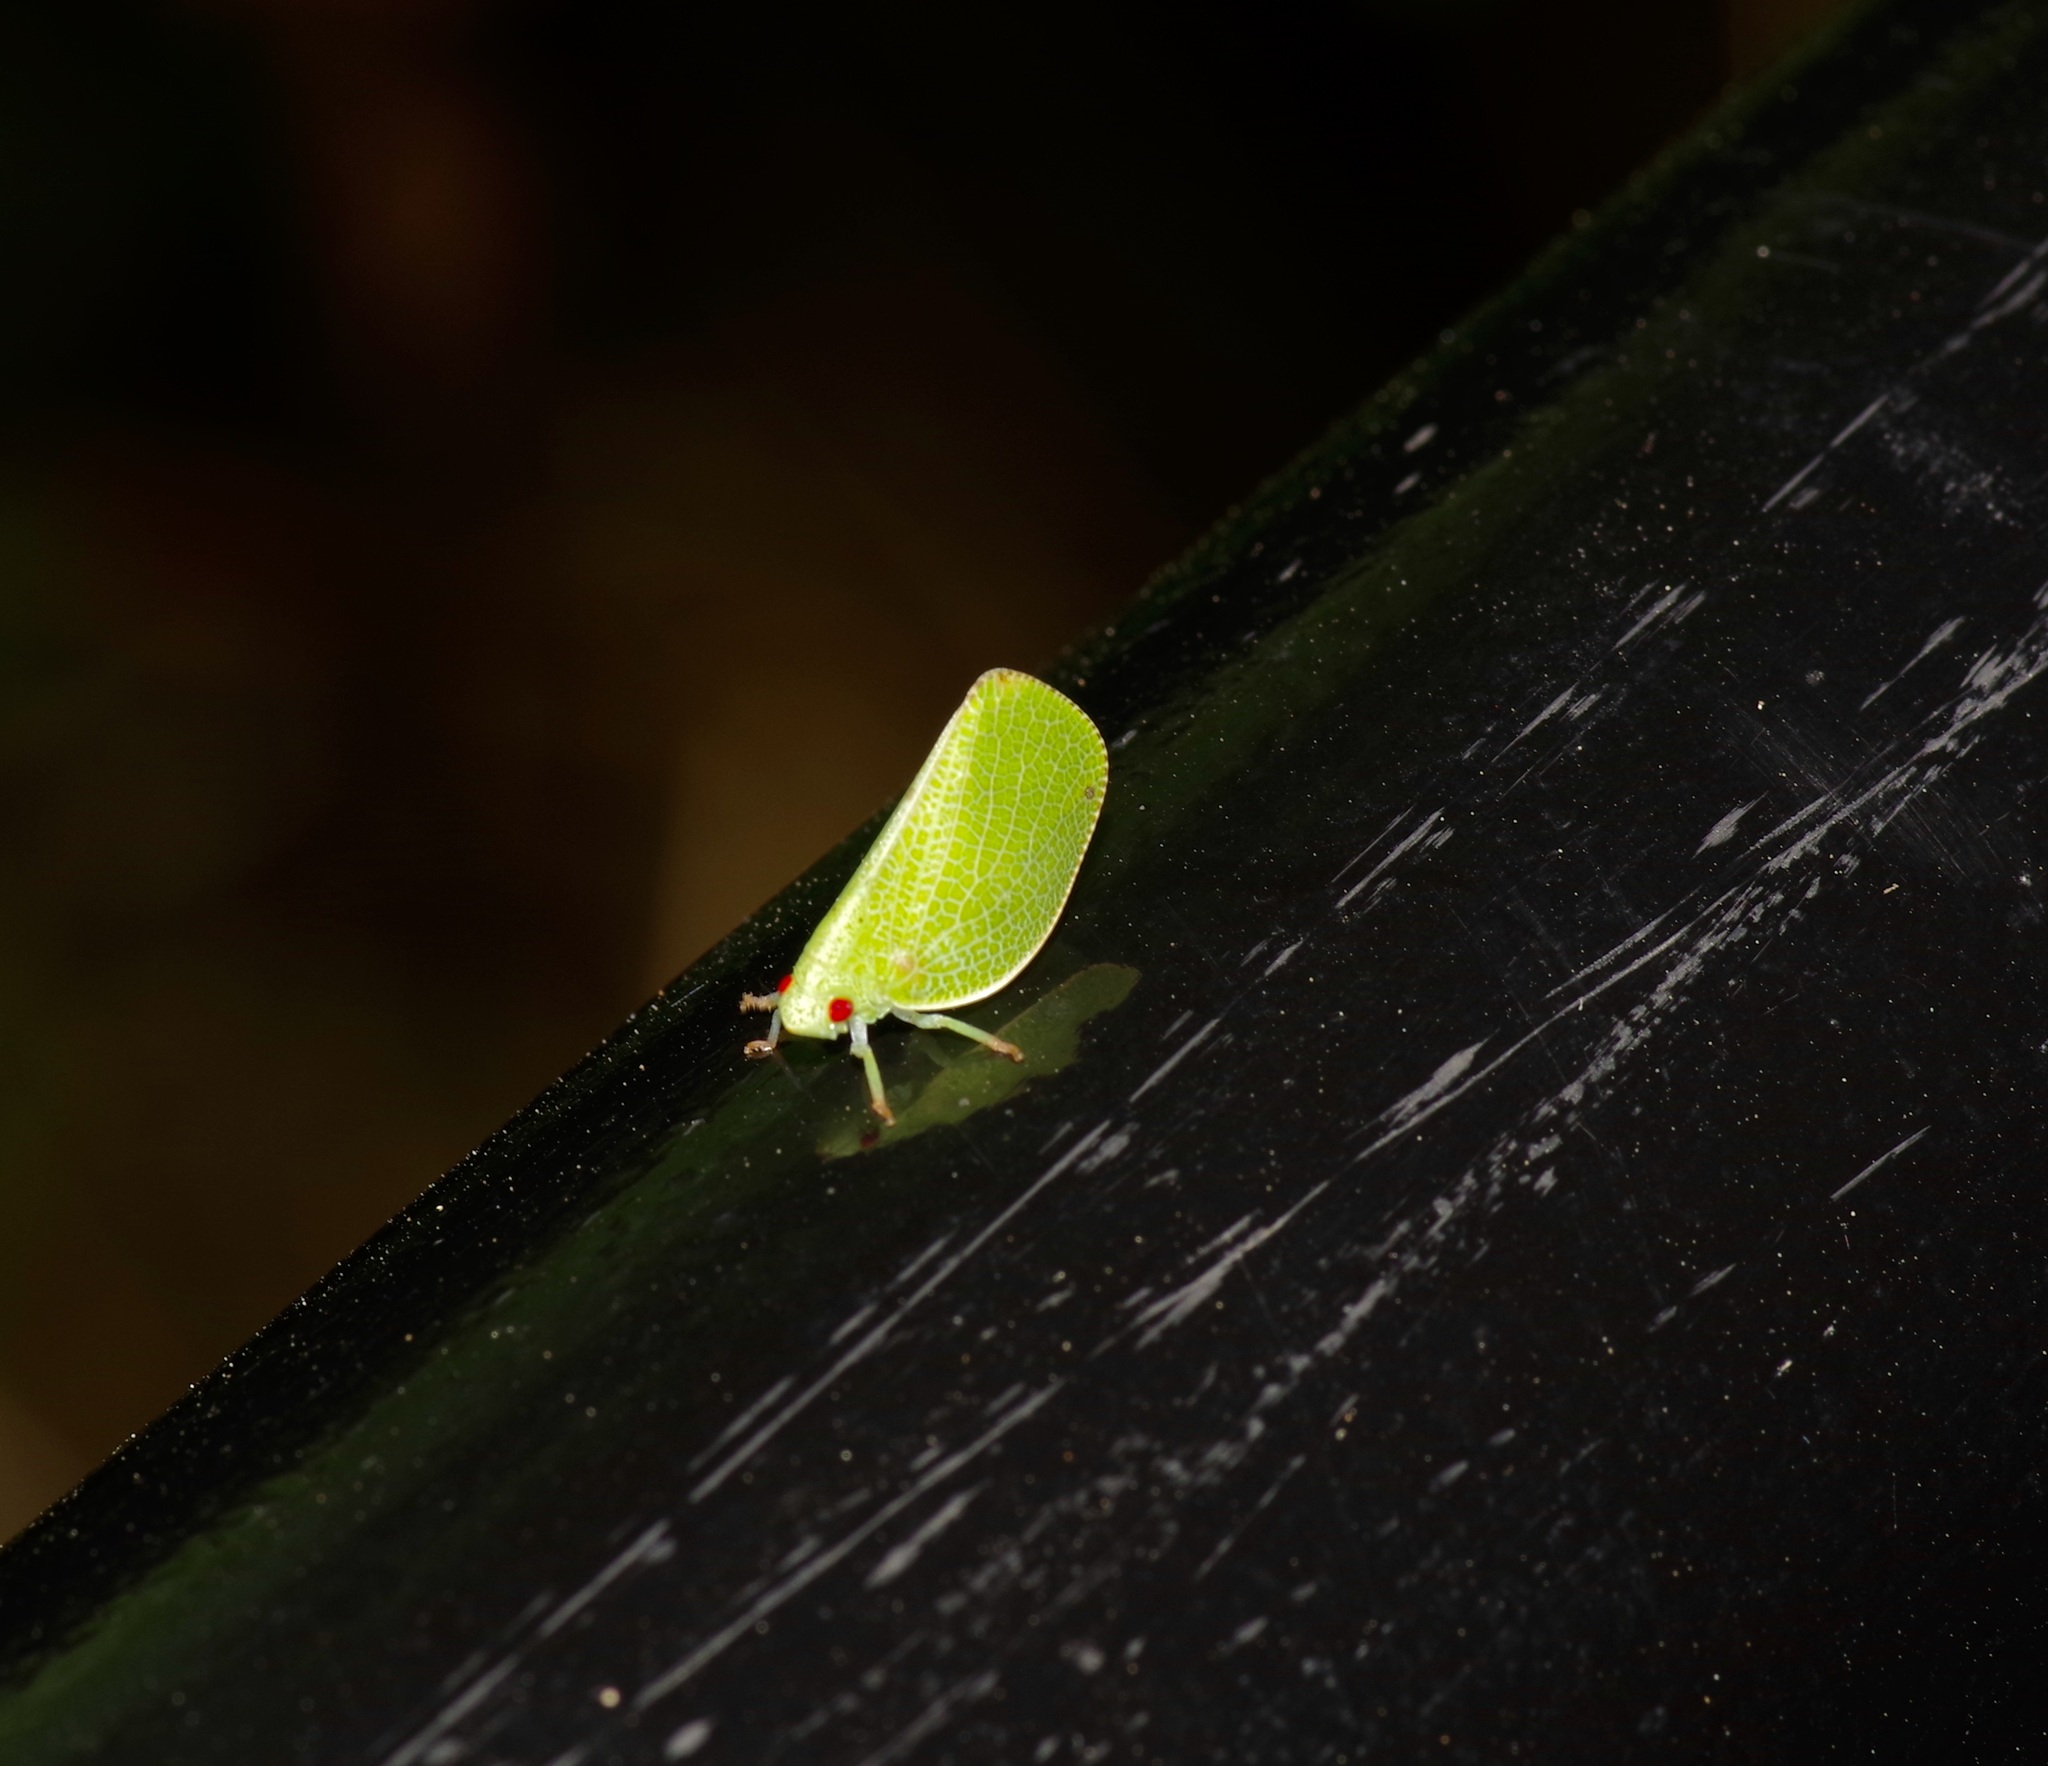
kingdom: Animalia
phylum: Arthropoda
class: Insecta
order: Hemiptera
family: Acanaloniidae
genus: Acanalonia
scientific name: Acanalonia conica
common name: Green cone-headed planthopper
